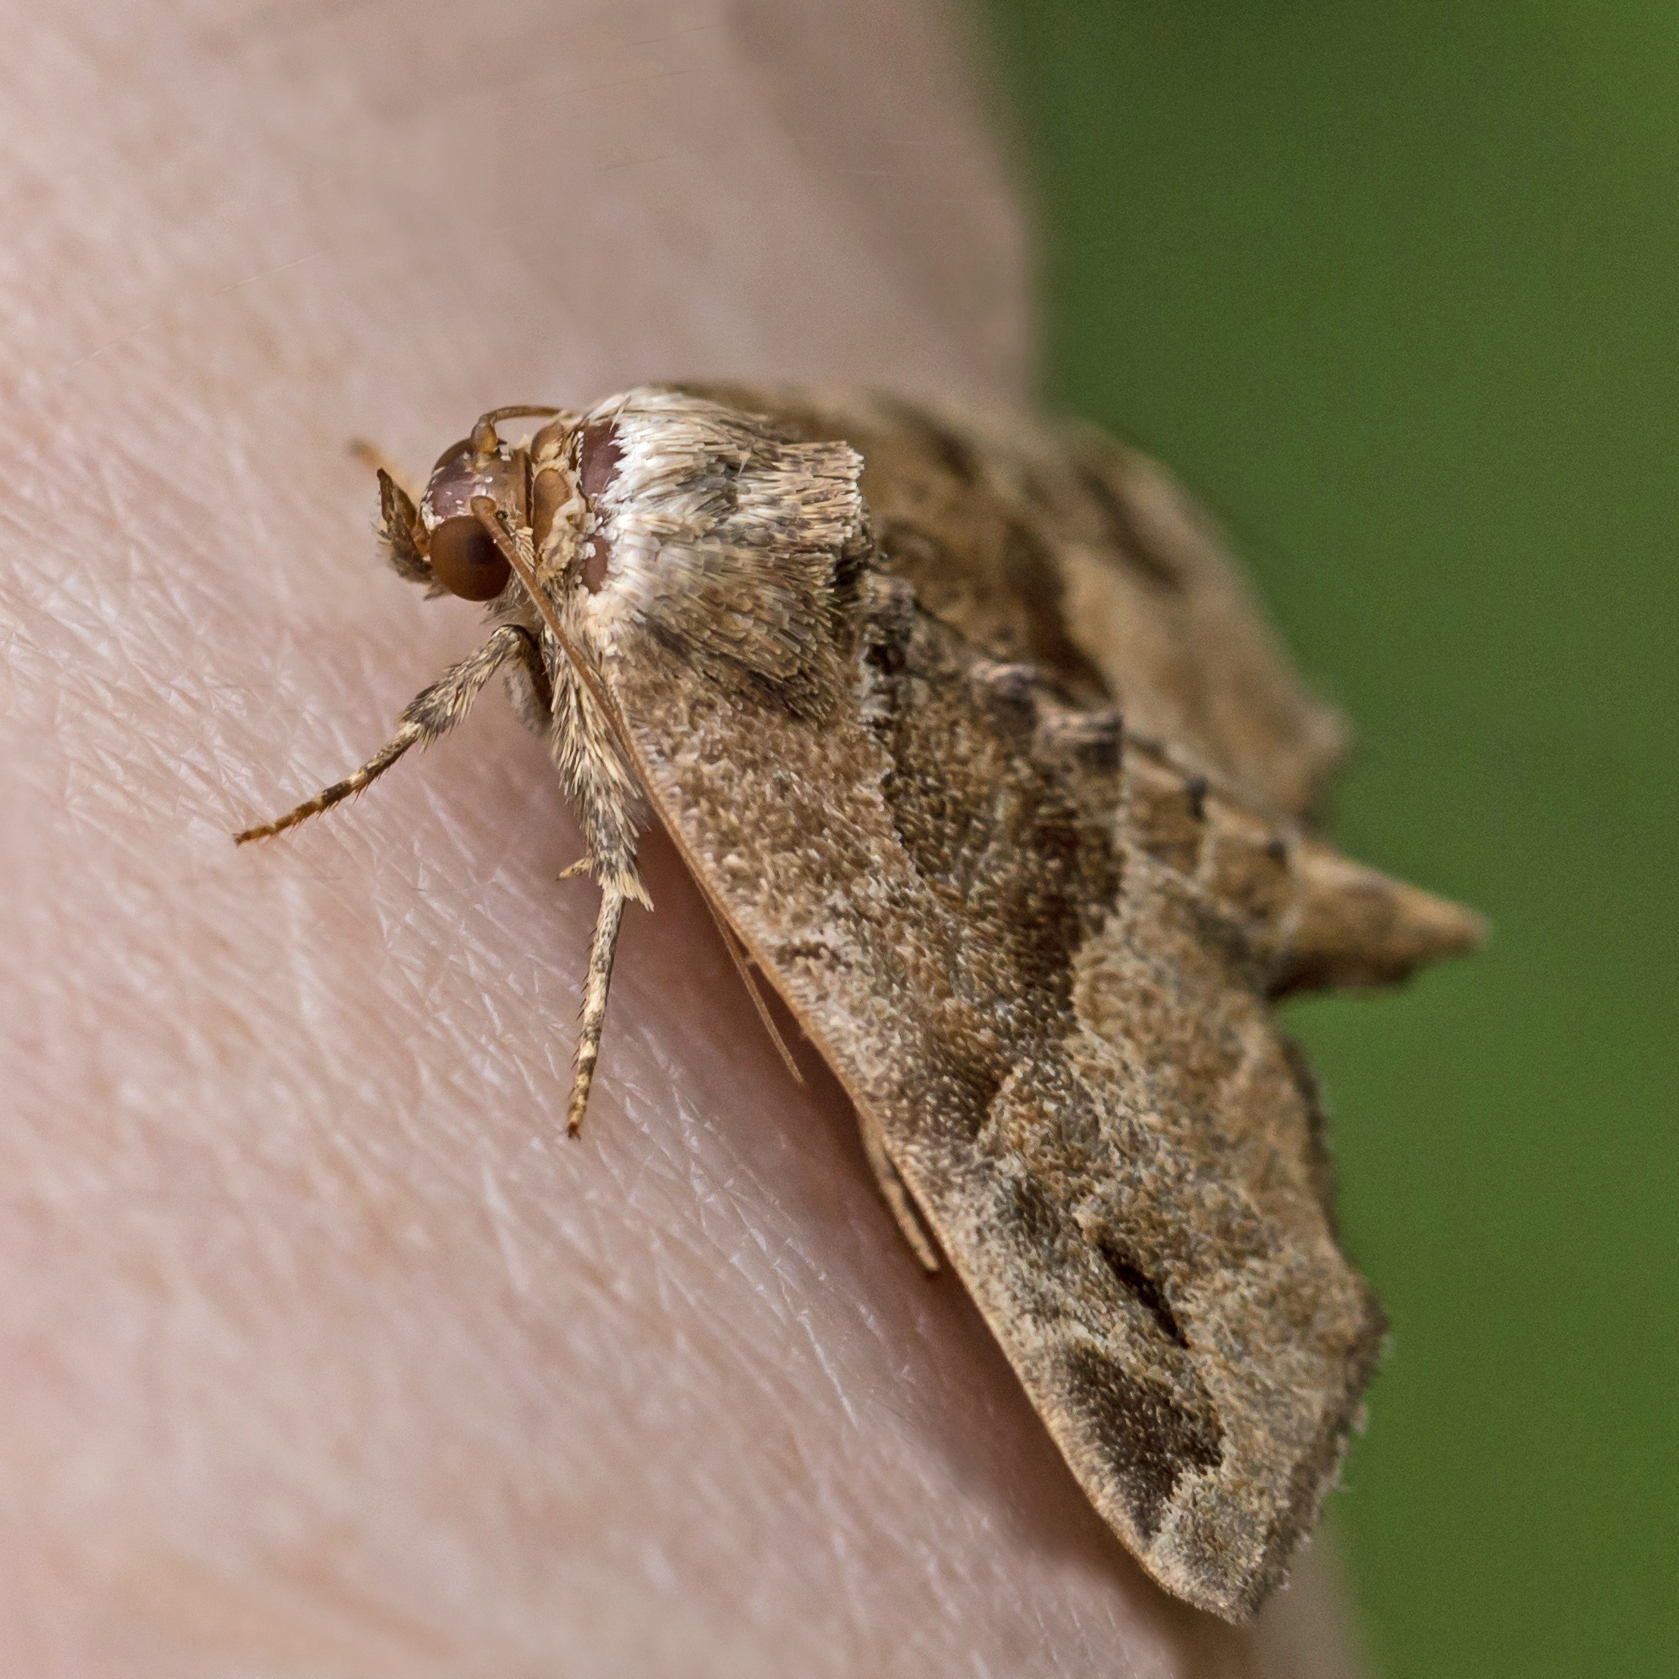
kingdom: Animalia
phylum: Arthropoda
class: Insecta
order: Lepidoptera
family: Noctuidae
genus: Niphonyx
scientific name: Niphonyx segregata
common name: Hops angleshade moth
